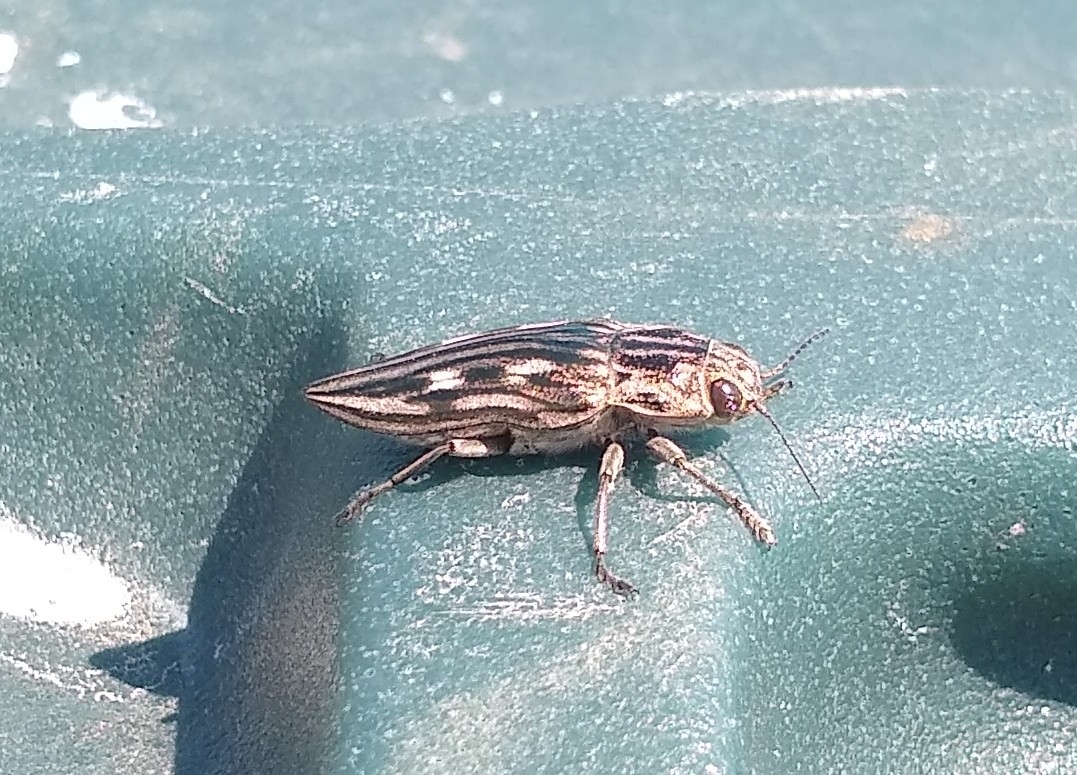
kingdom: Animalia
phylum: Arthropoda
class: Insecta
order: Coleoptera
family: Buprestidae
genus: Chalcophora
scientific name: Chalcophora virginiensis
